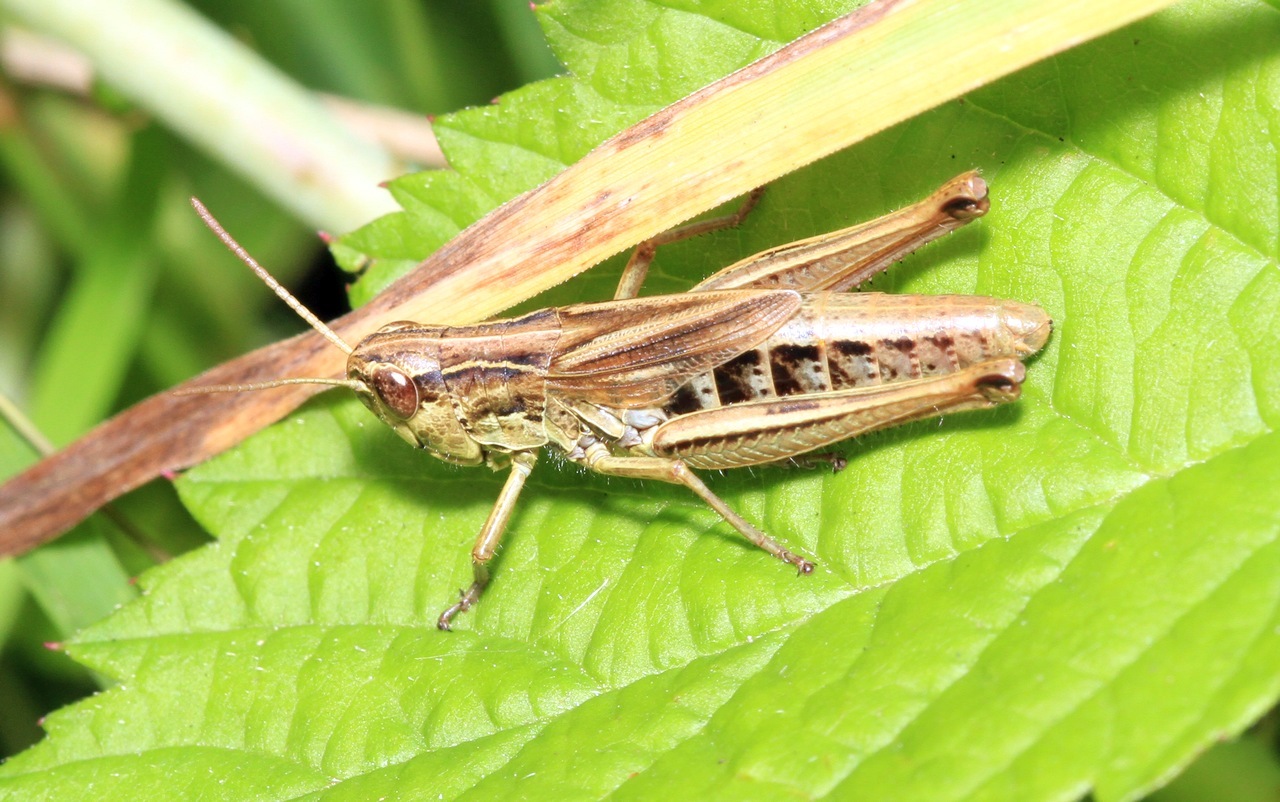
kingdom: Animalia
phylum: Arthropoda
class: Insecta
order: Orthoptera
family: Acrididae
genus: Pseudochorthippus
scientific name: Pseudochorthippus parallelus
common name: Meadow grasshopper
